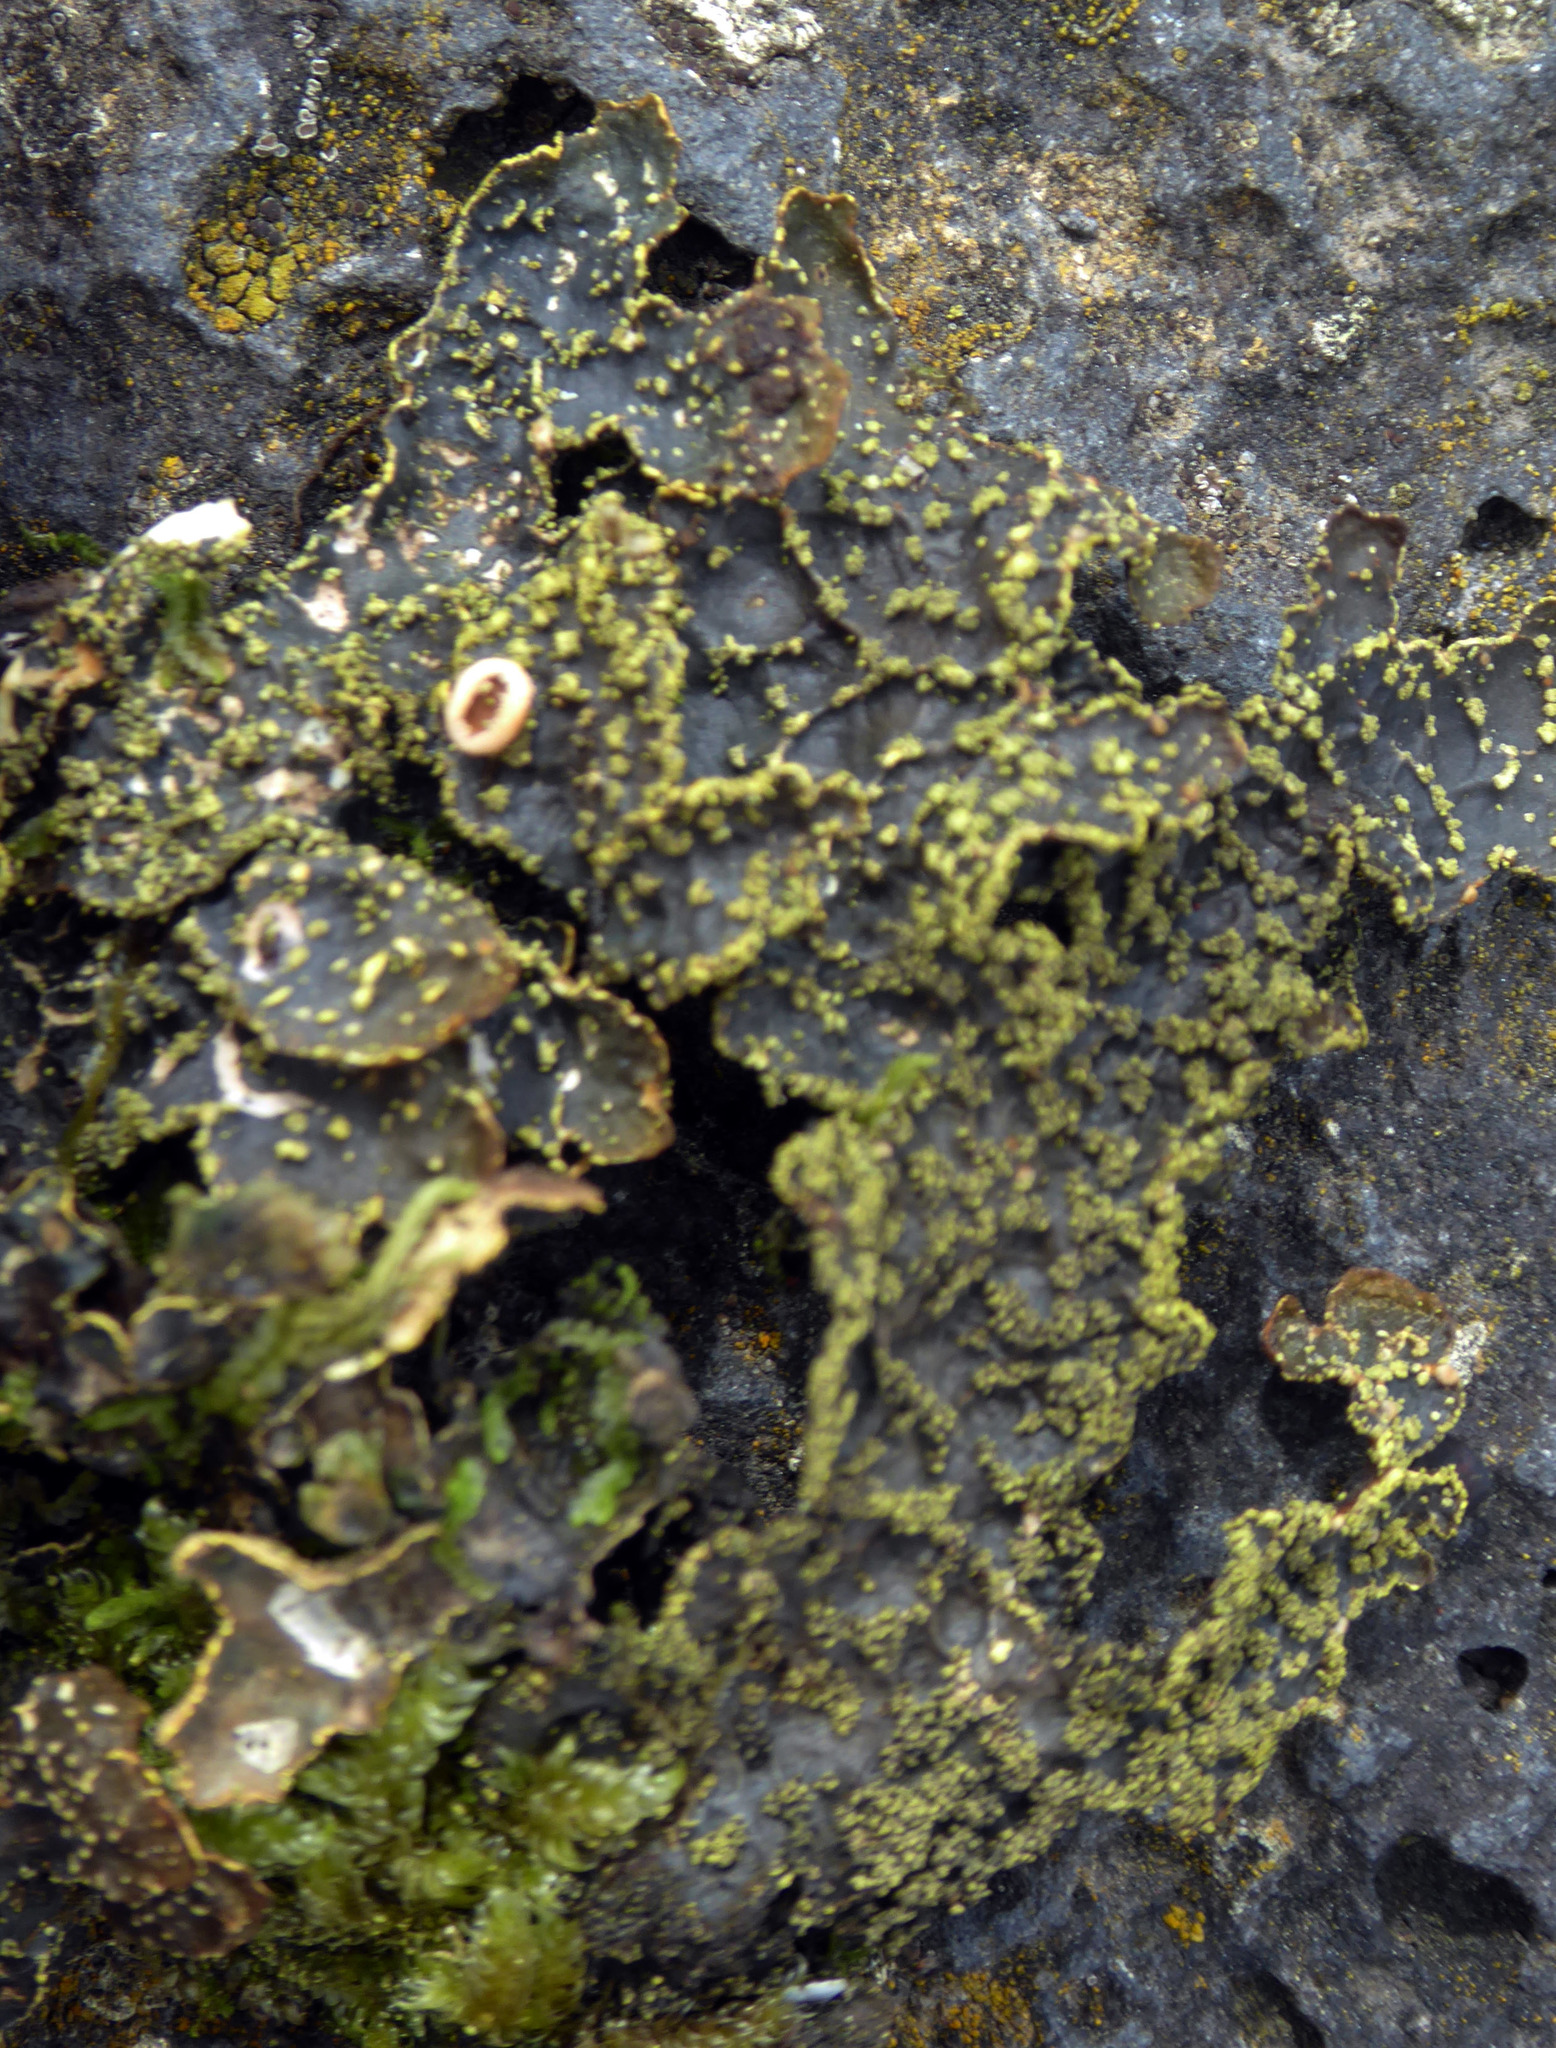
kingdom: Fungi
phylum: Ascomycota
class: Lecanoromycetes
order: Peltigerales
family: Lobariaceae
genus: Pseudocyphellaria
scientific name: Pseudocyphellaria crocata
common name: Golden specklebelly
